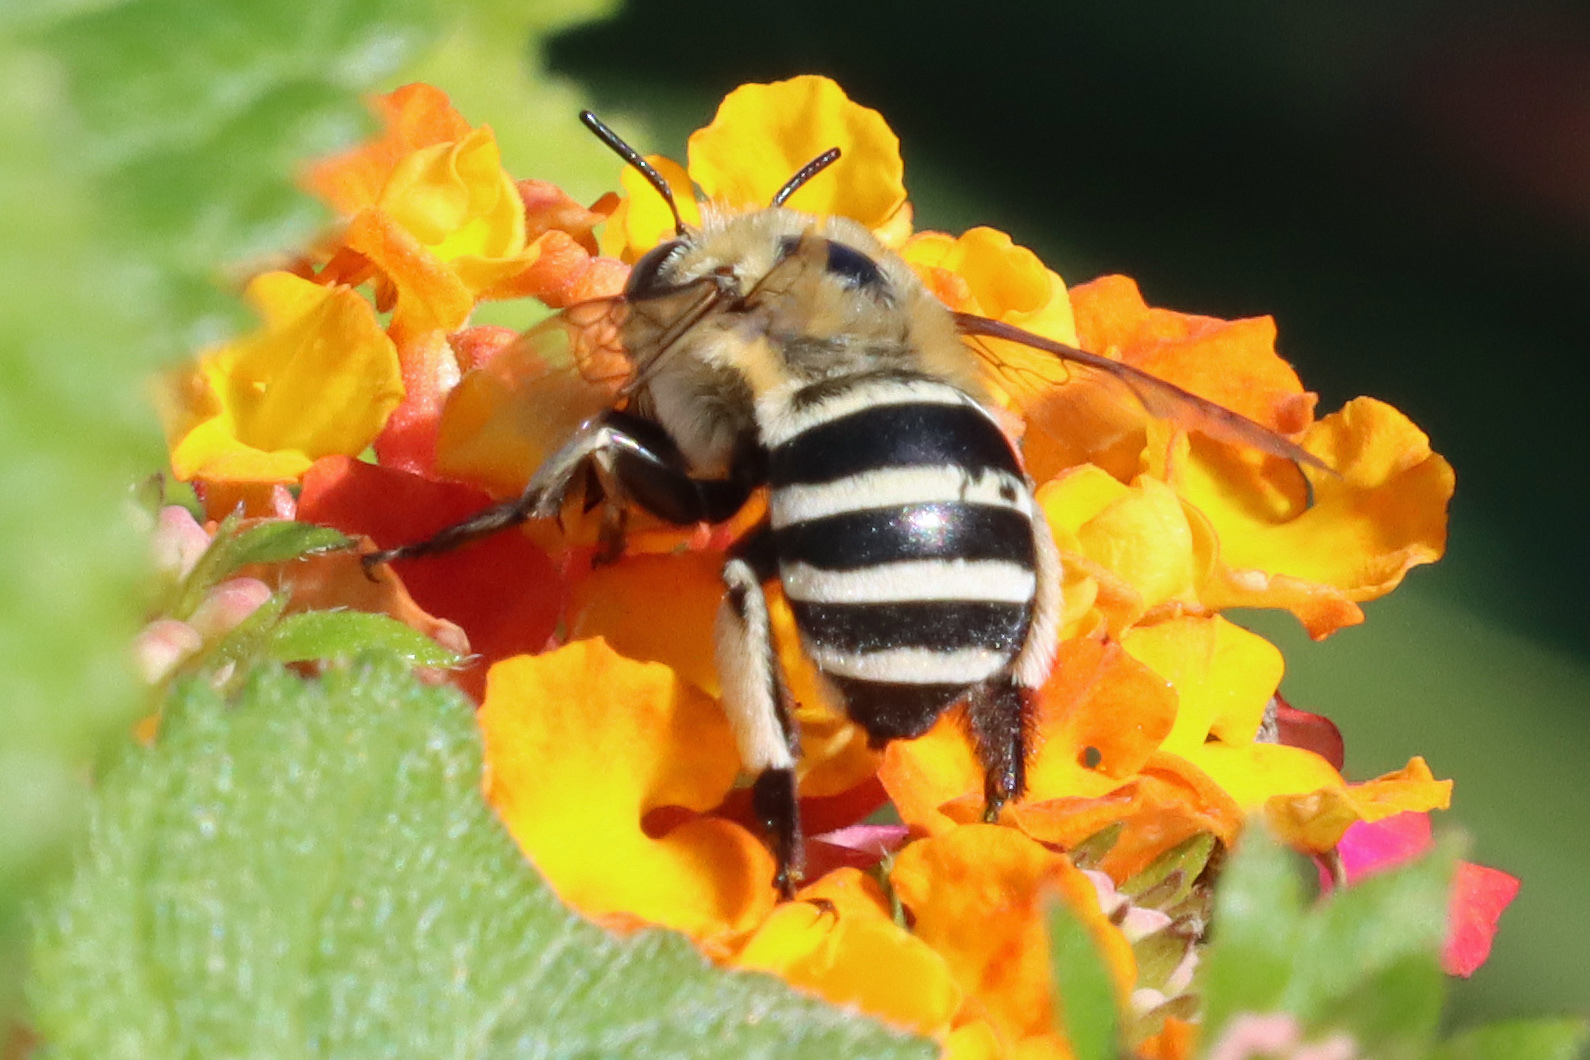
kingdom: Animalia
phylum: Arthropoda
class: Insecta
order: Hymenoptera
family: Apidae
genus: Amegilla
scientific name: Amegilla quadrifasciata
